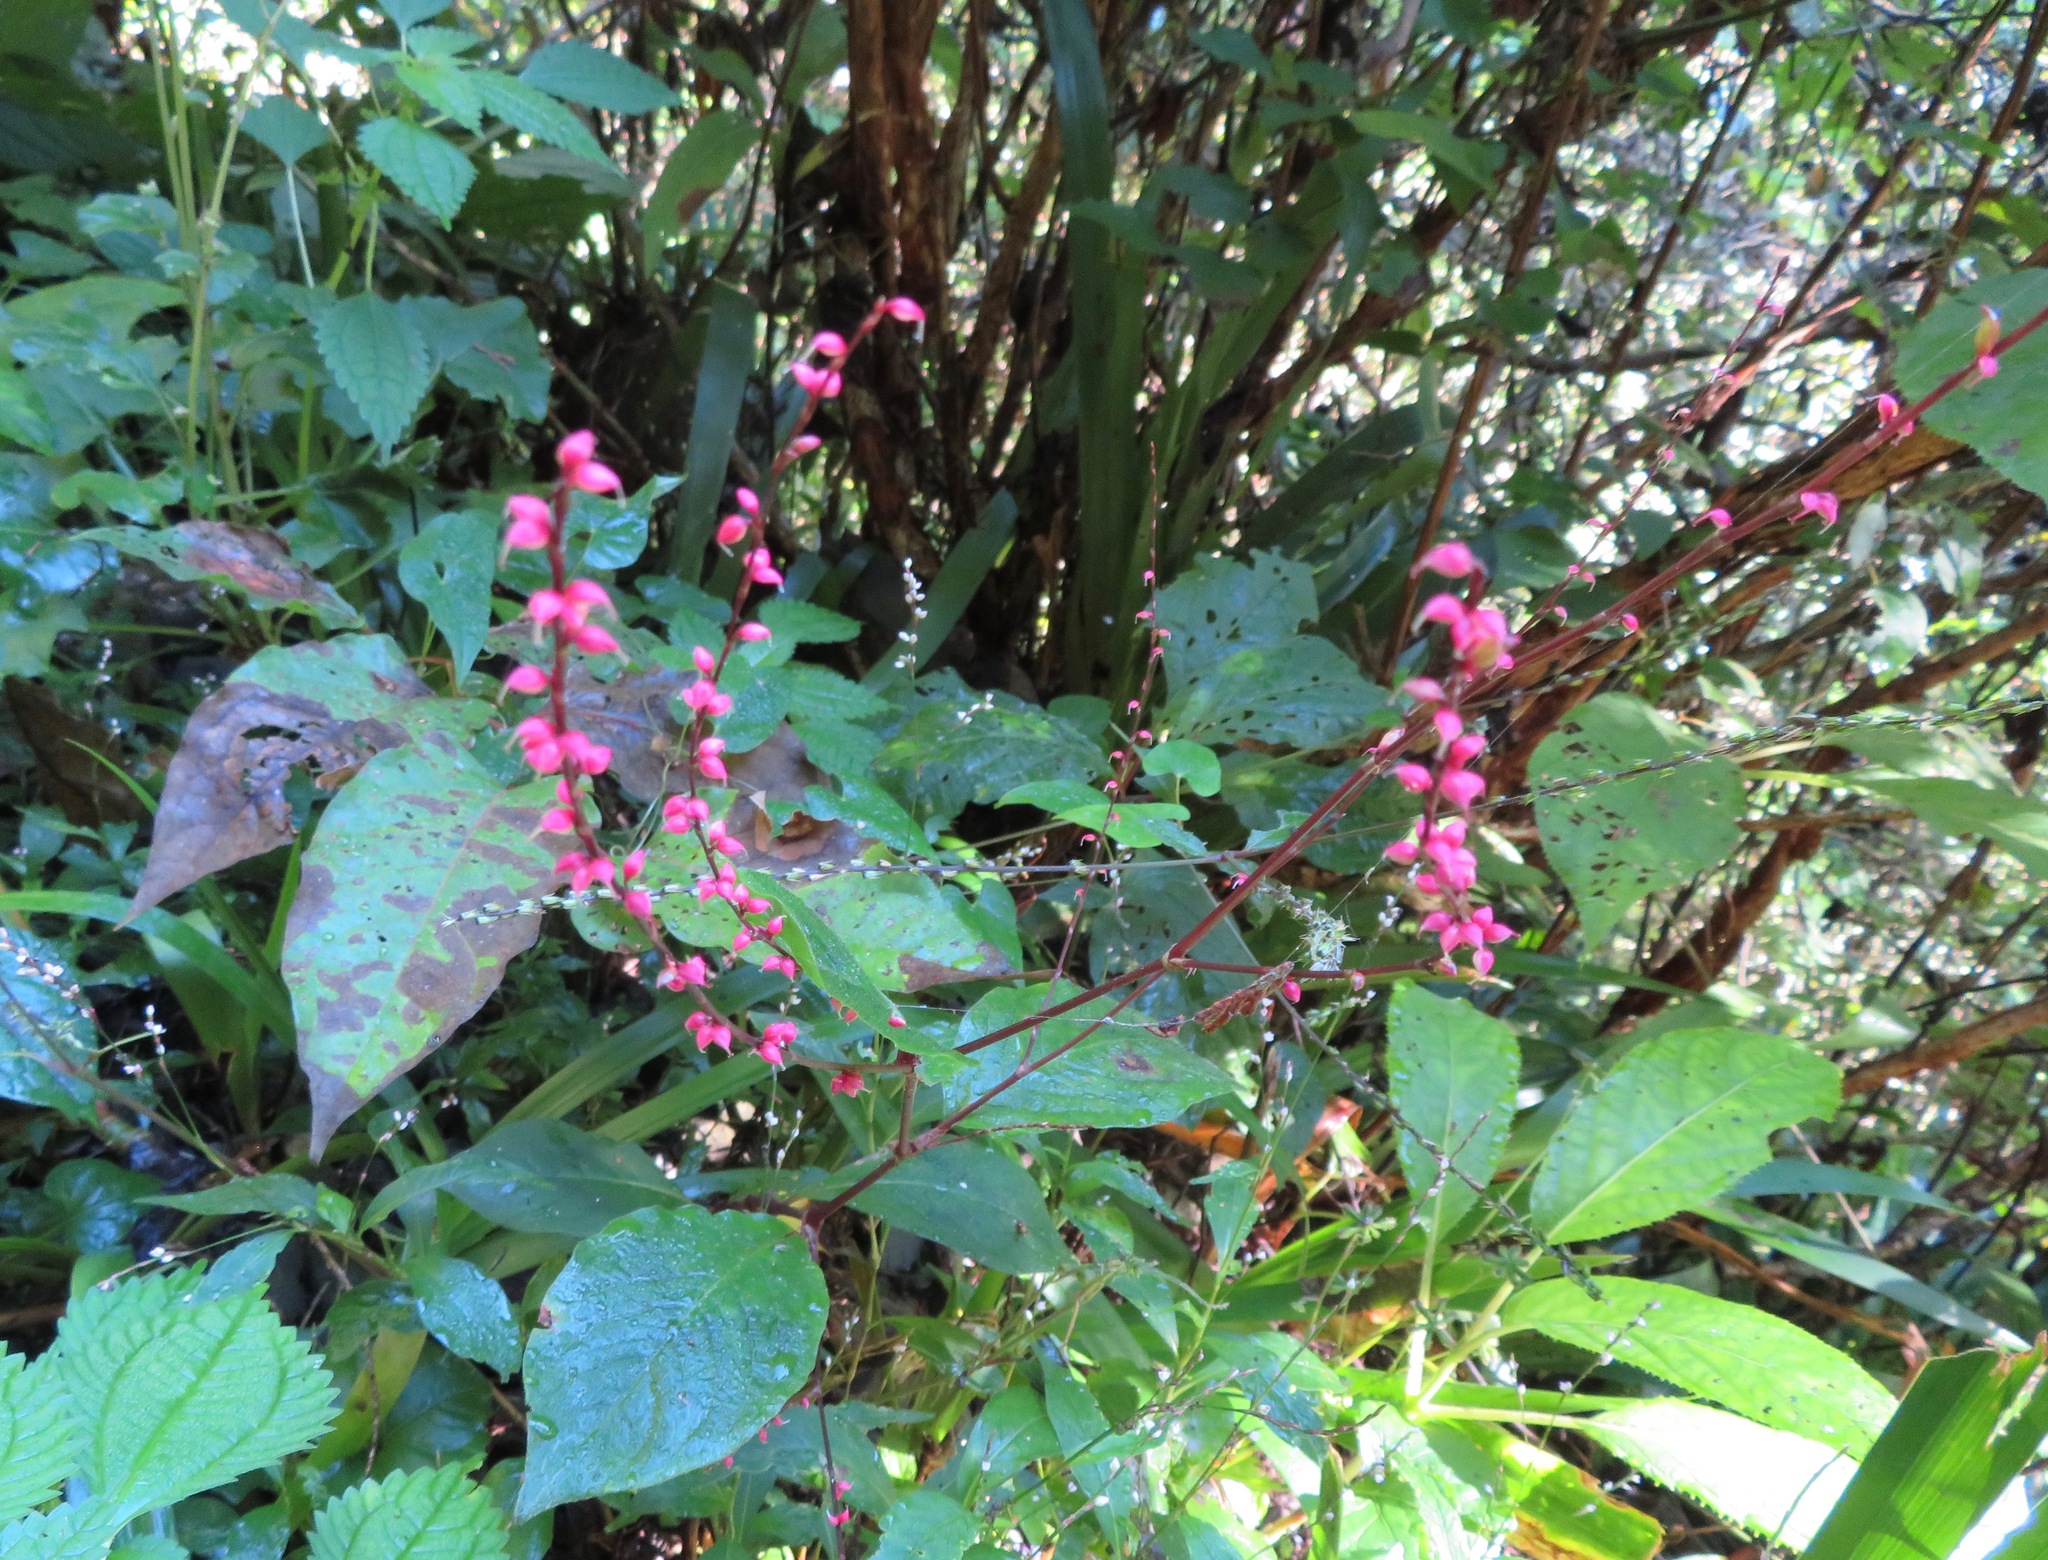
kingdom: Plantae
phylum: Tracheophyta
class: Magnoliopsida
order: Caryophyllales
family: Polygonaceae
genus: Persicaria
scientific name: Persicaria filiformis
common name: Asian jumpseed
